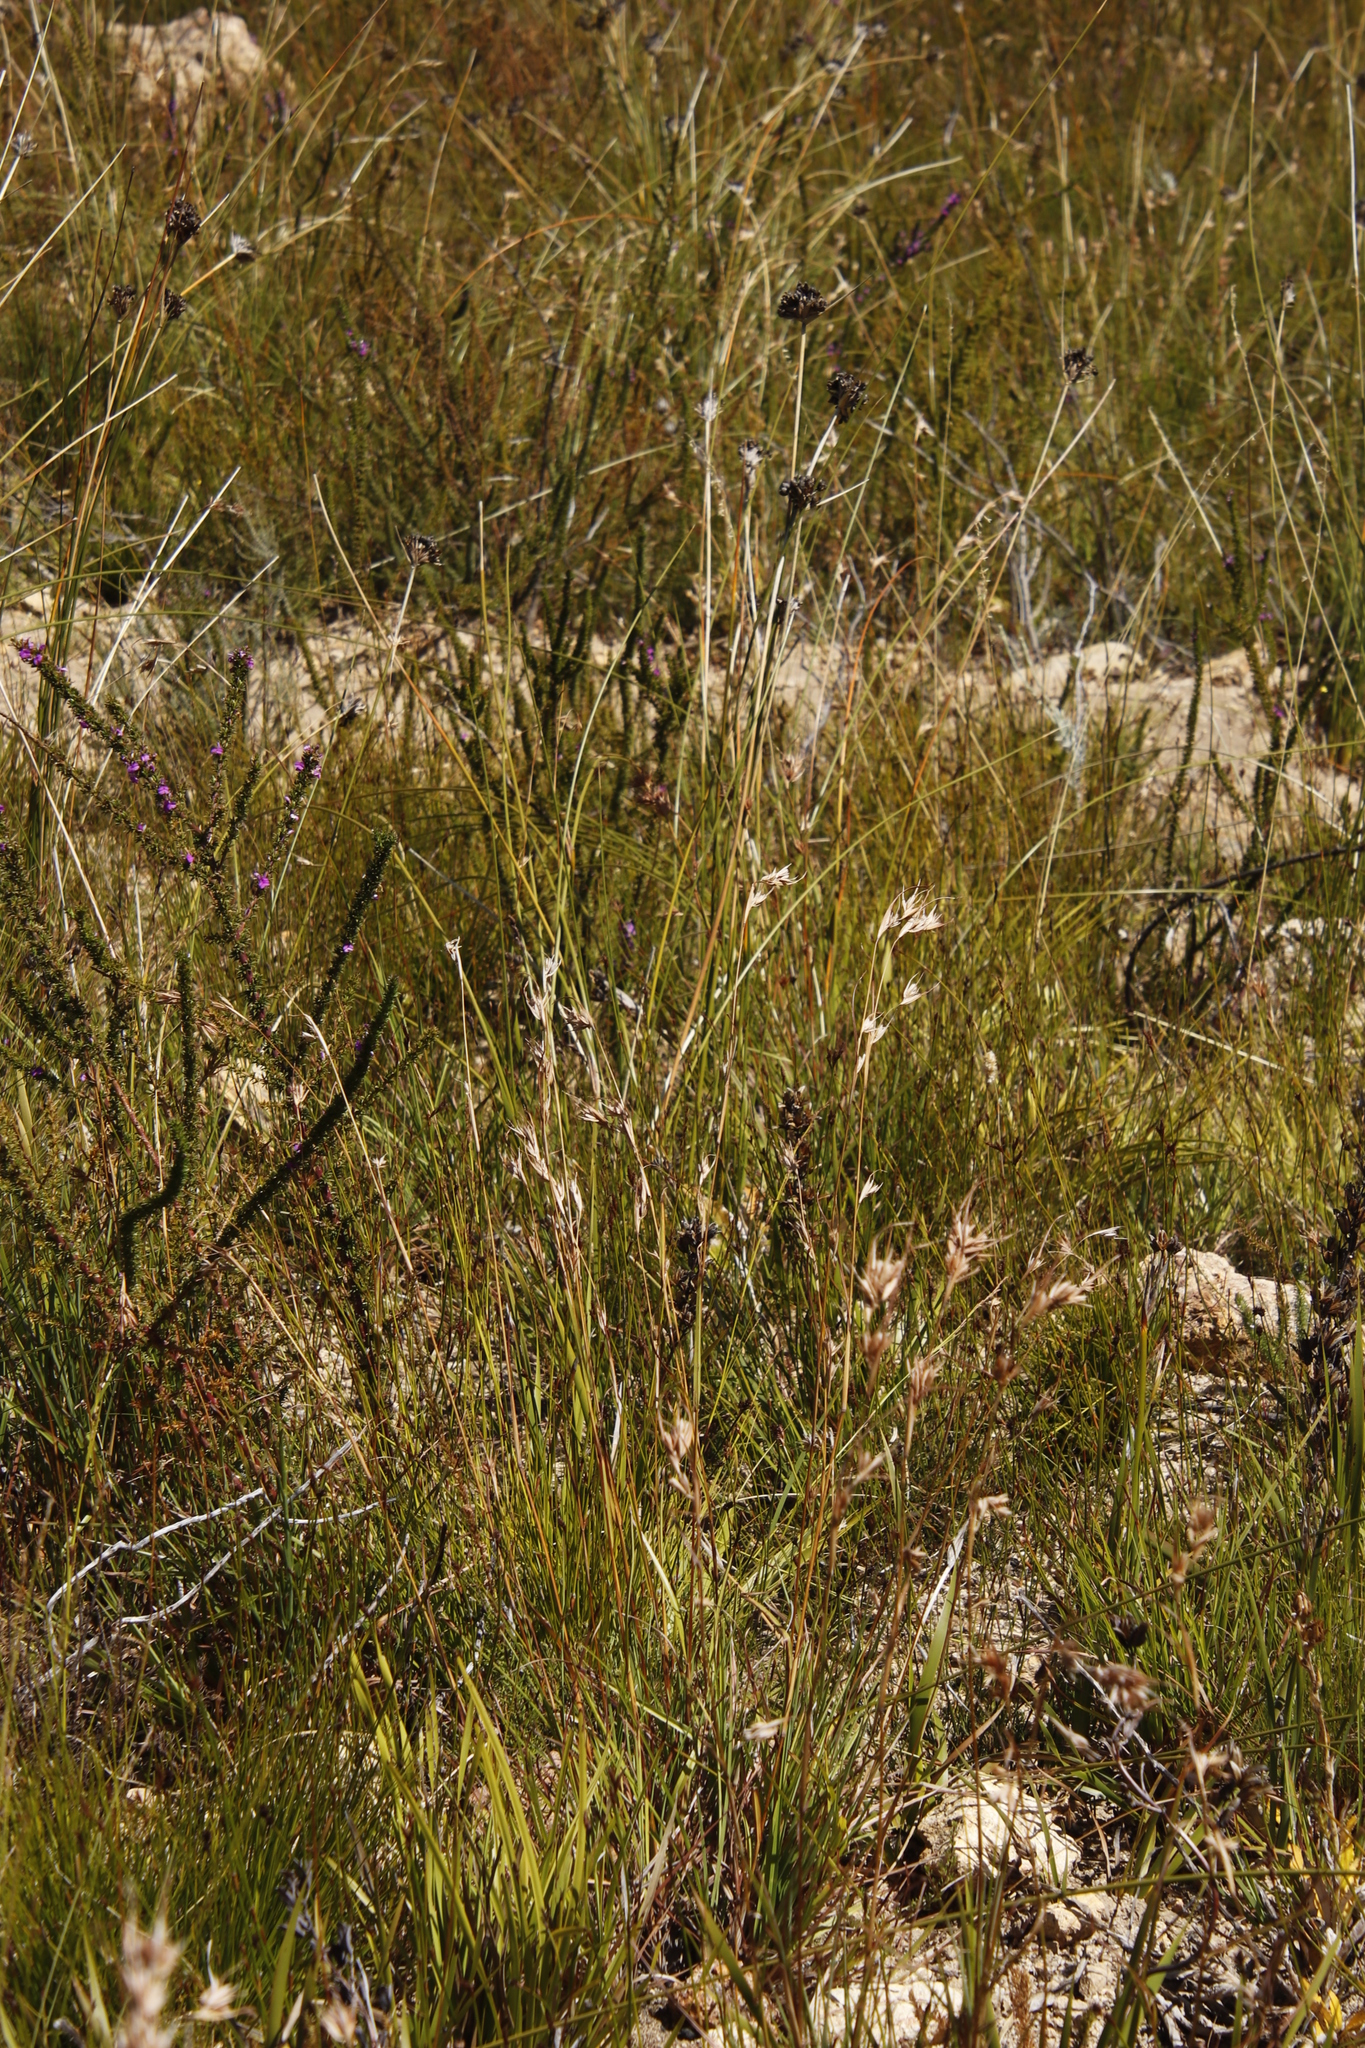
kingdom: Plantae
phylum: Tracheophyta
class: Liliopsida
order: Poales
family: Poaceae
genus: Themeda
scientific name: Themeda triandra
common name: Kangaroo grass
